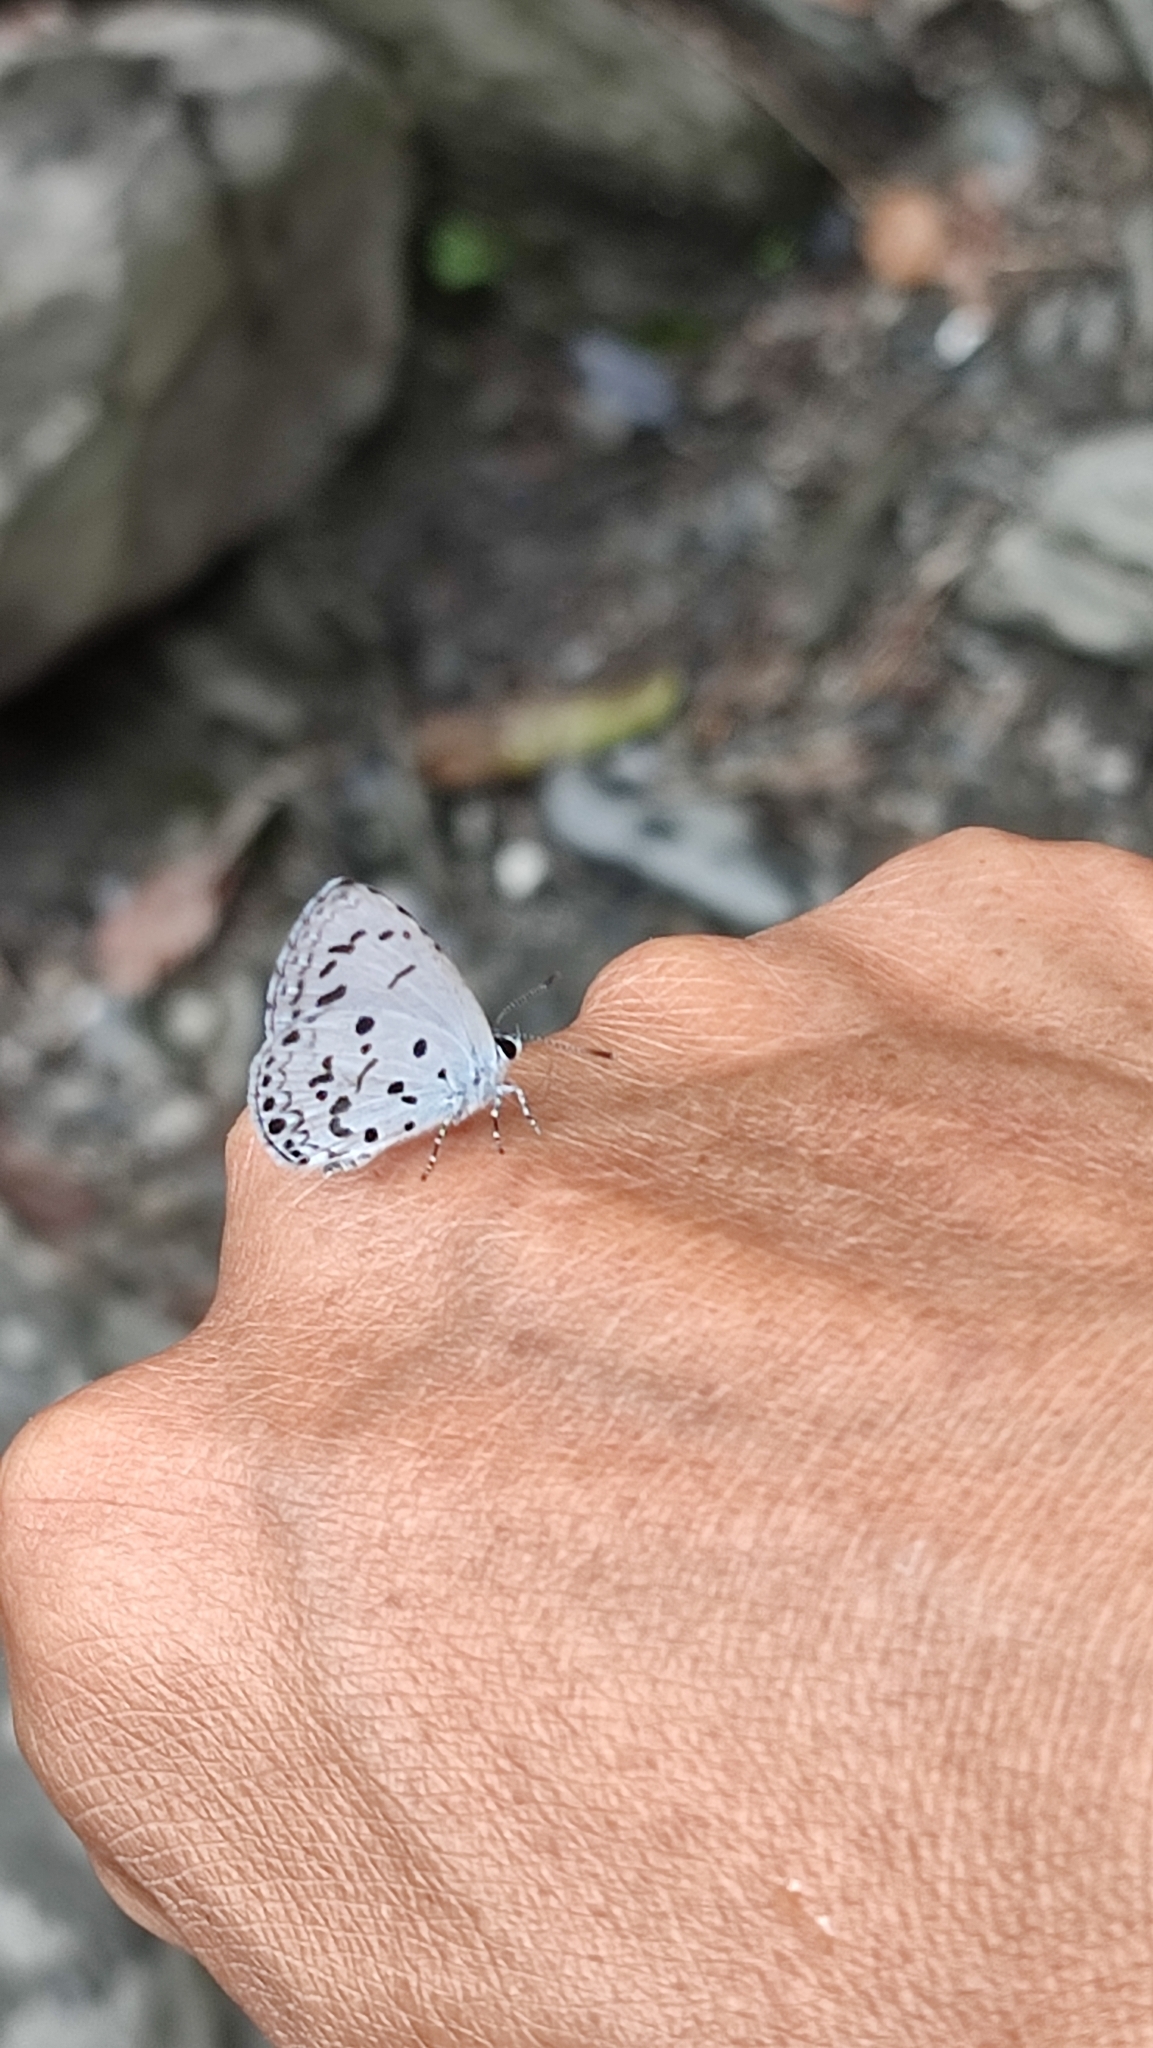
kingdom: Animalia
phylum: Arthropoda
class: Insecta
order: Lepidoptera
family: Lycaenidae
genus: Acytolepis
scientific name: Acytolepis puspa
